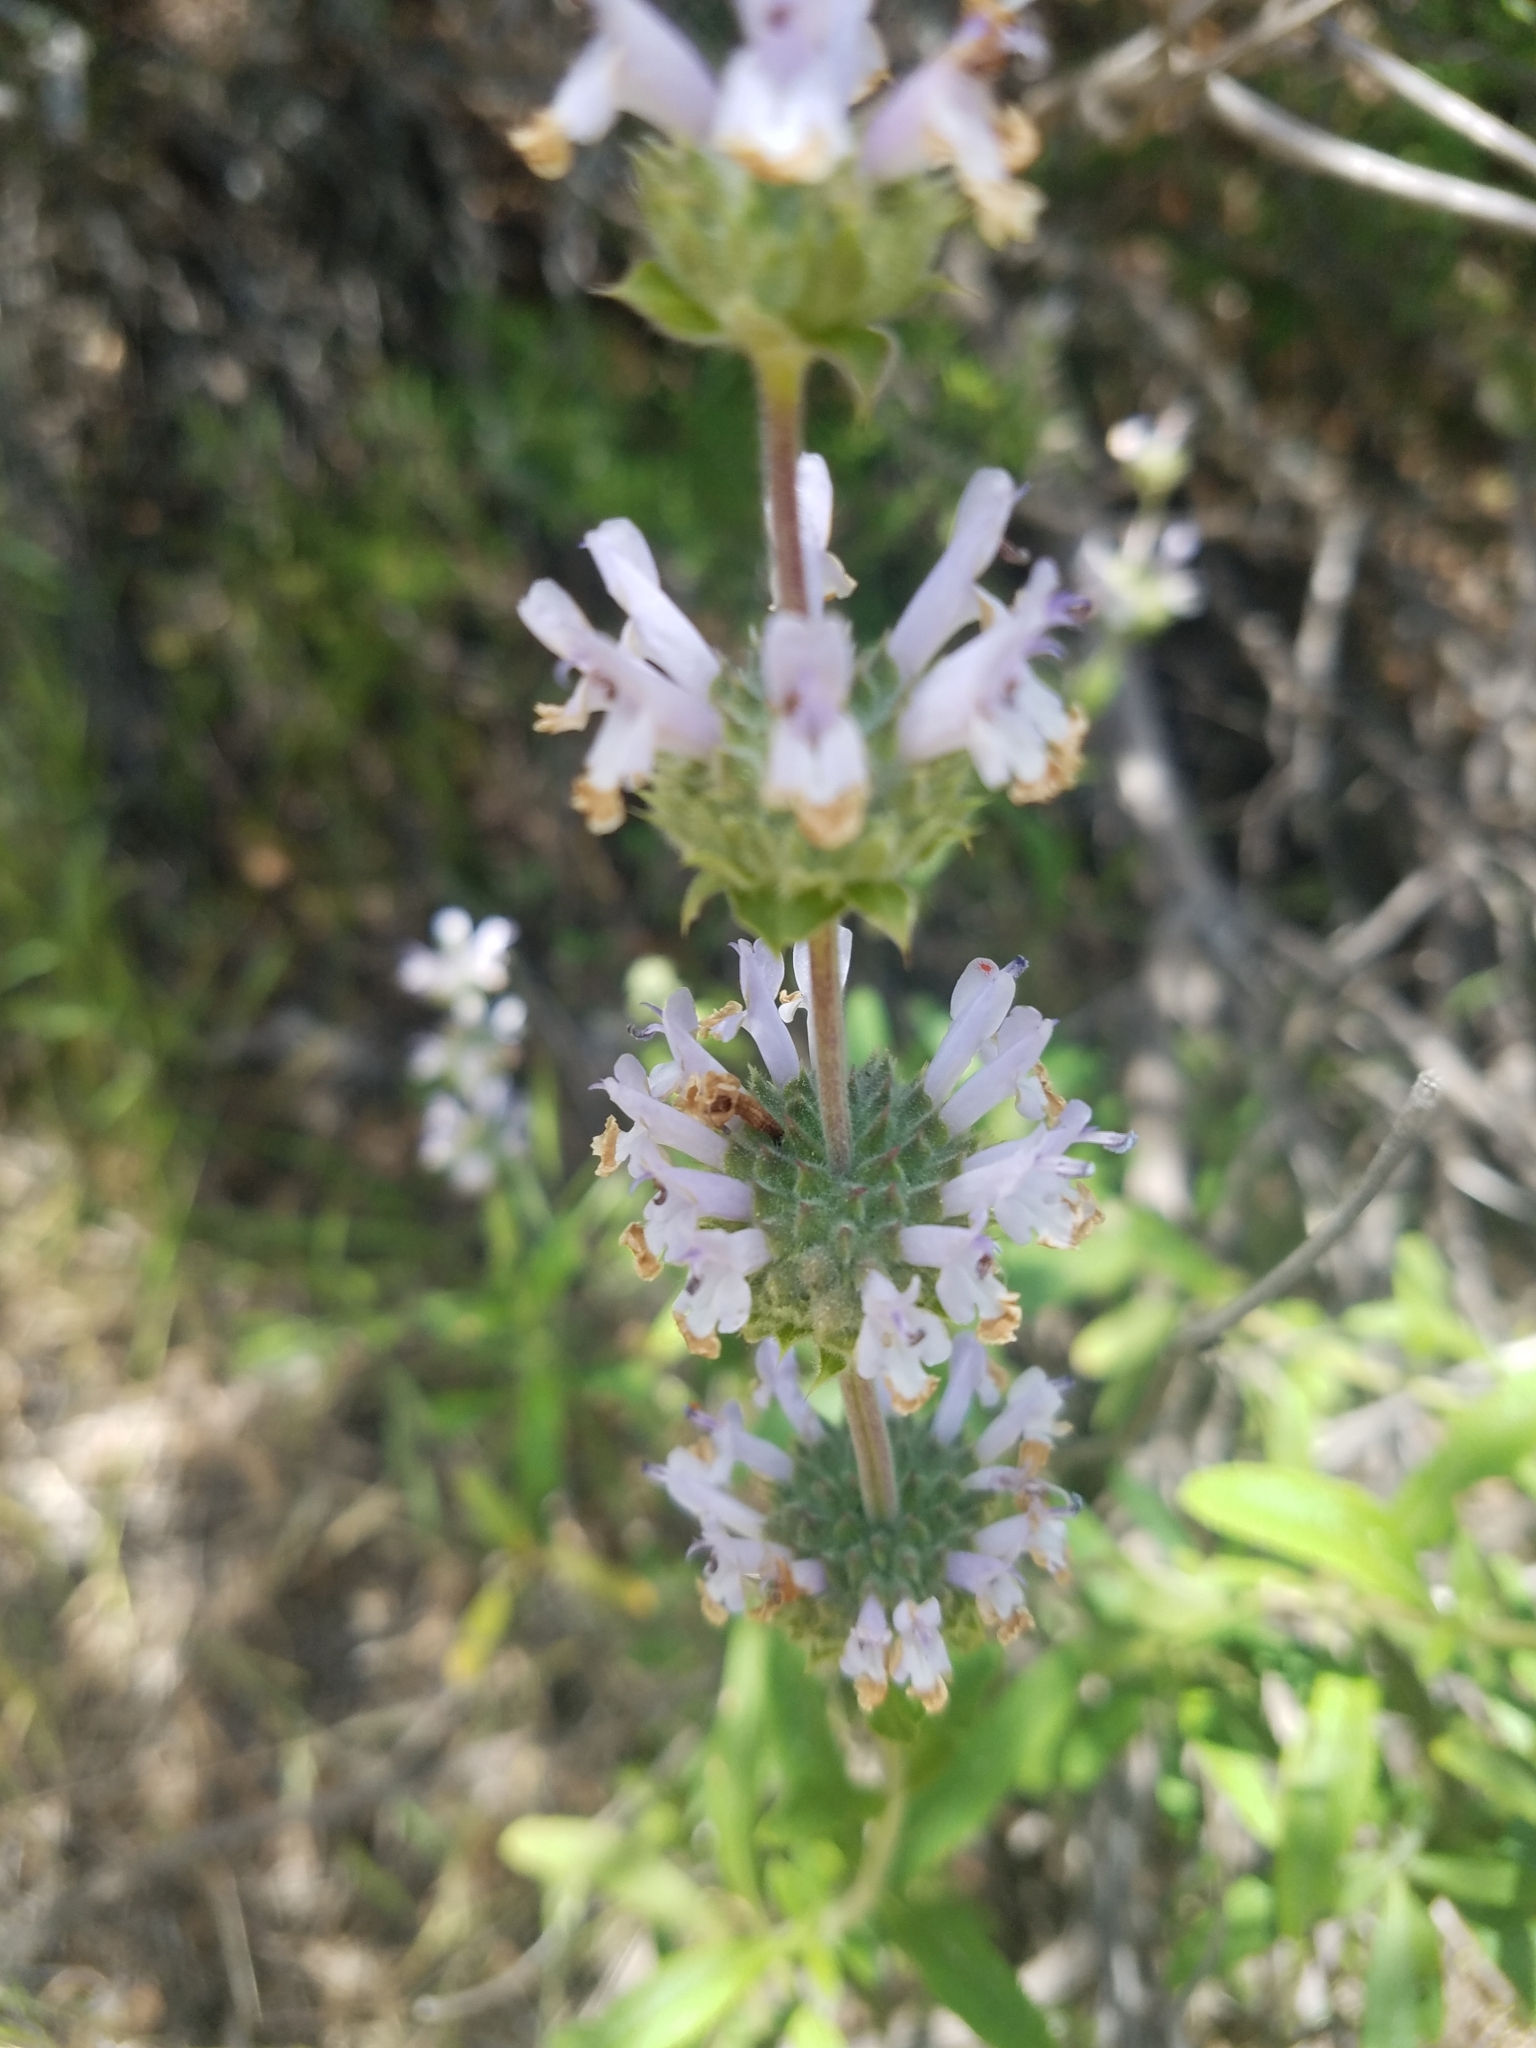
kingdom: Plantae
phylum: Tracheophyta
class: Magnoliopsida
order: Lamiales
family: Lamiaceae
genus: Salvia
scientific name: Salvia mellifera
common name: Black sage
